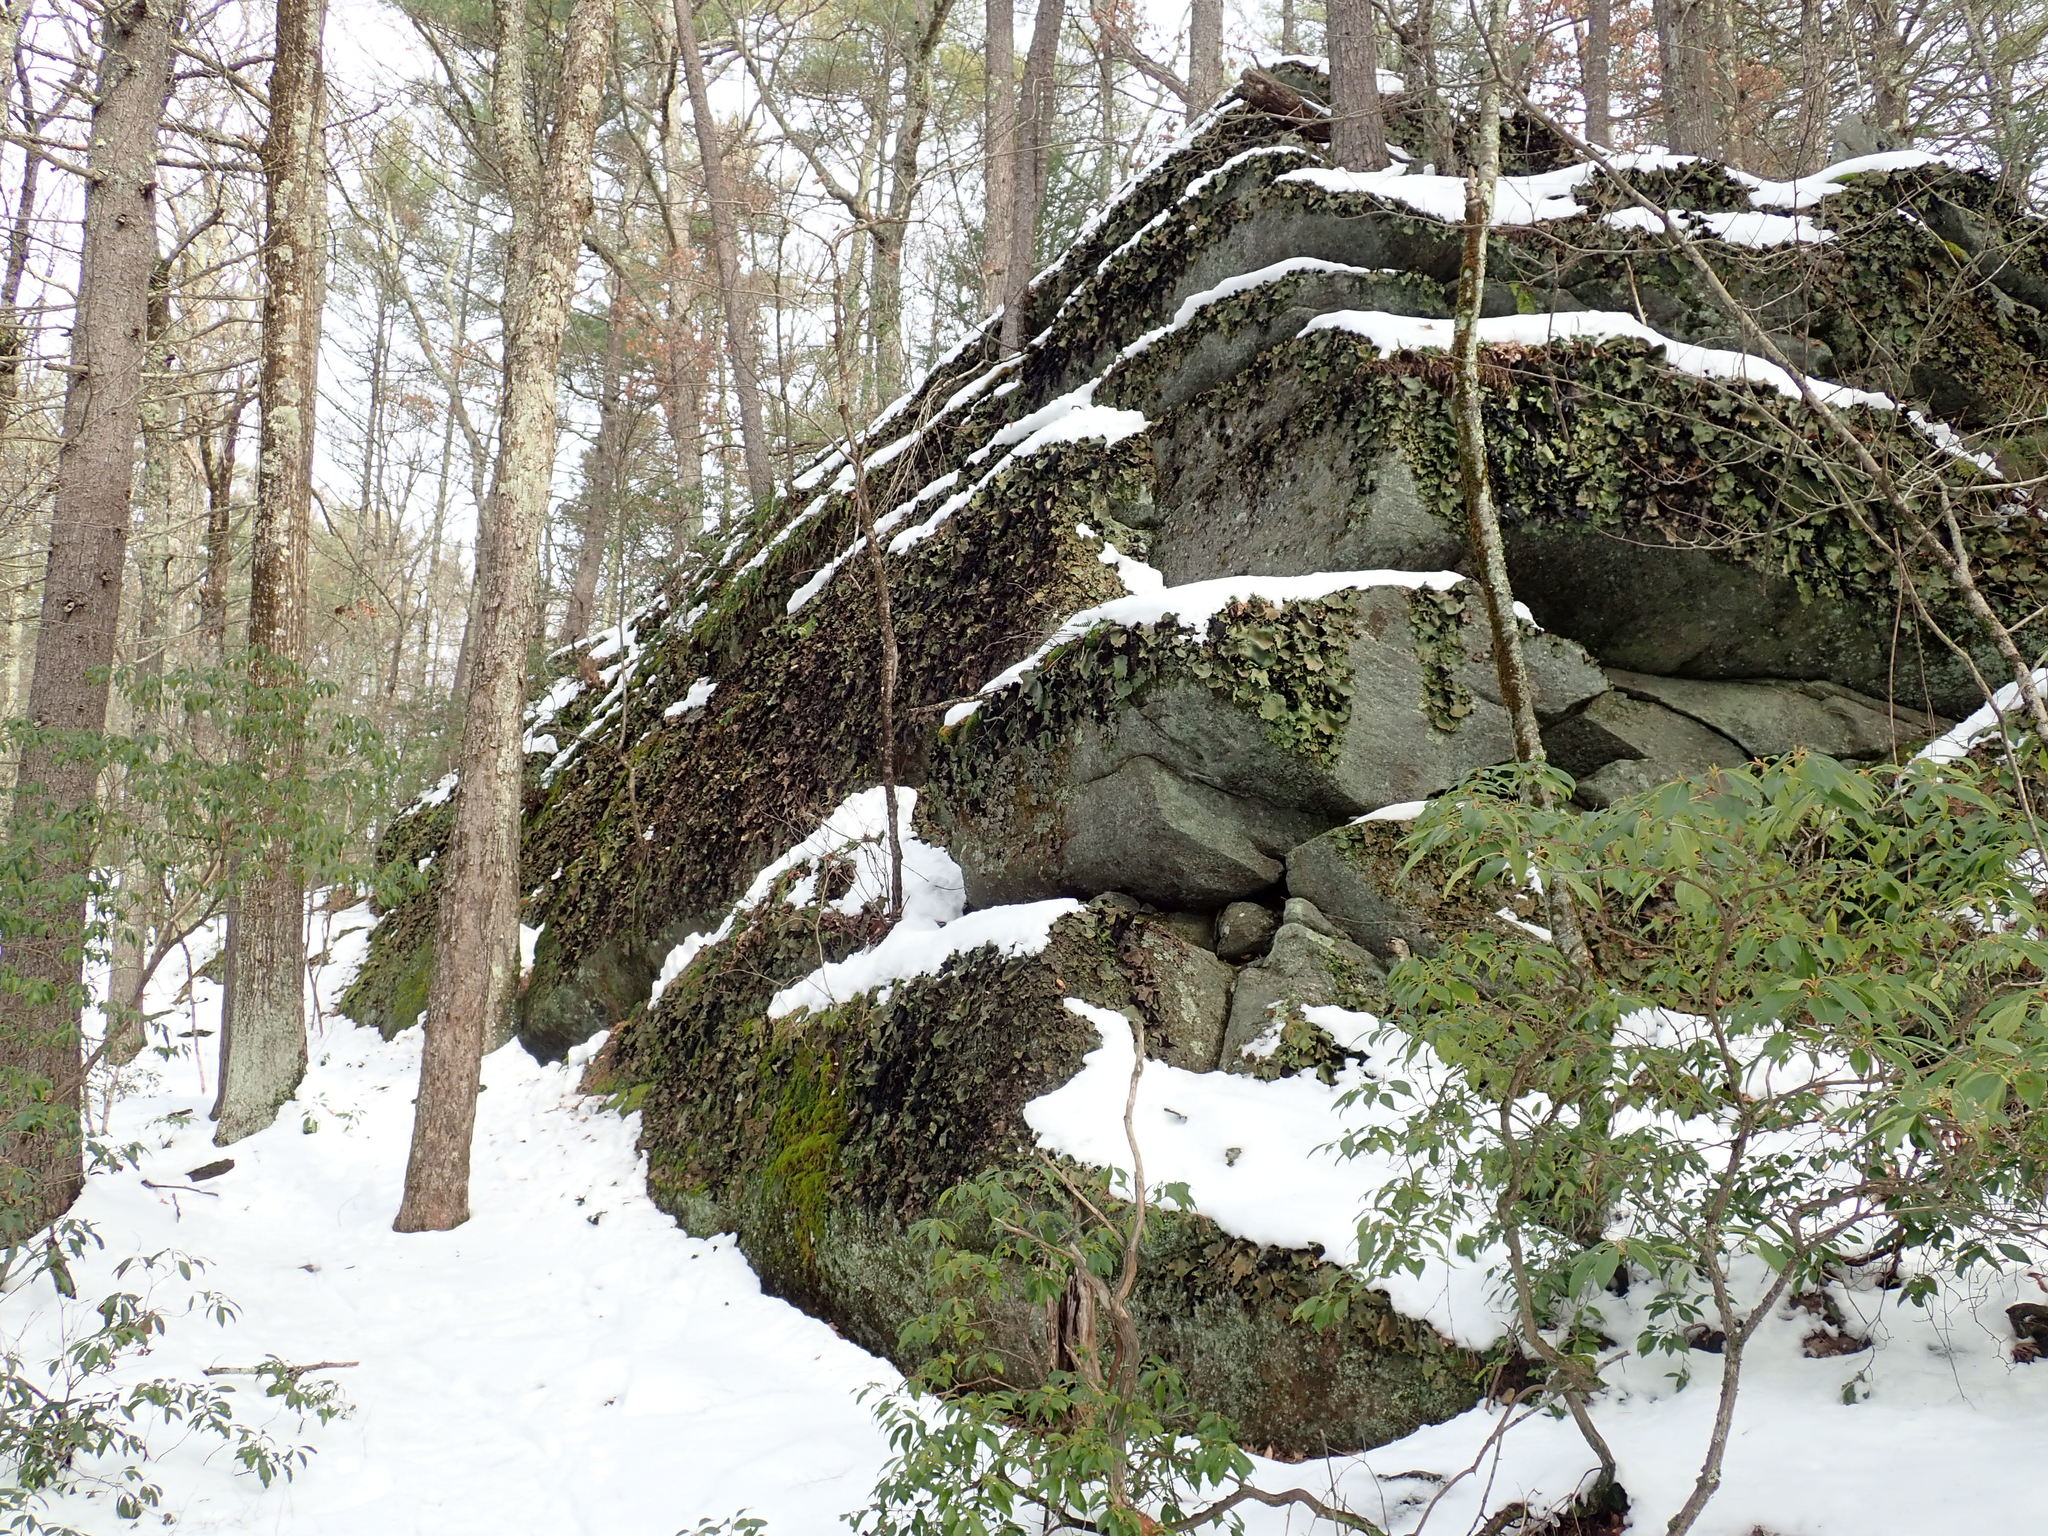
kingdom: Fungi
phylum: Ascomycota
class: Lecanoromycetes
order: Umbilicariales
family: Umbilicariaceae
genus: Umbilicaria
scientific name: Umbilicaria mammulata
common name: Smooth rock tripe
